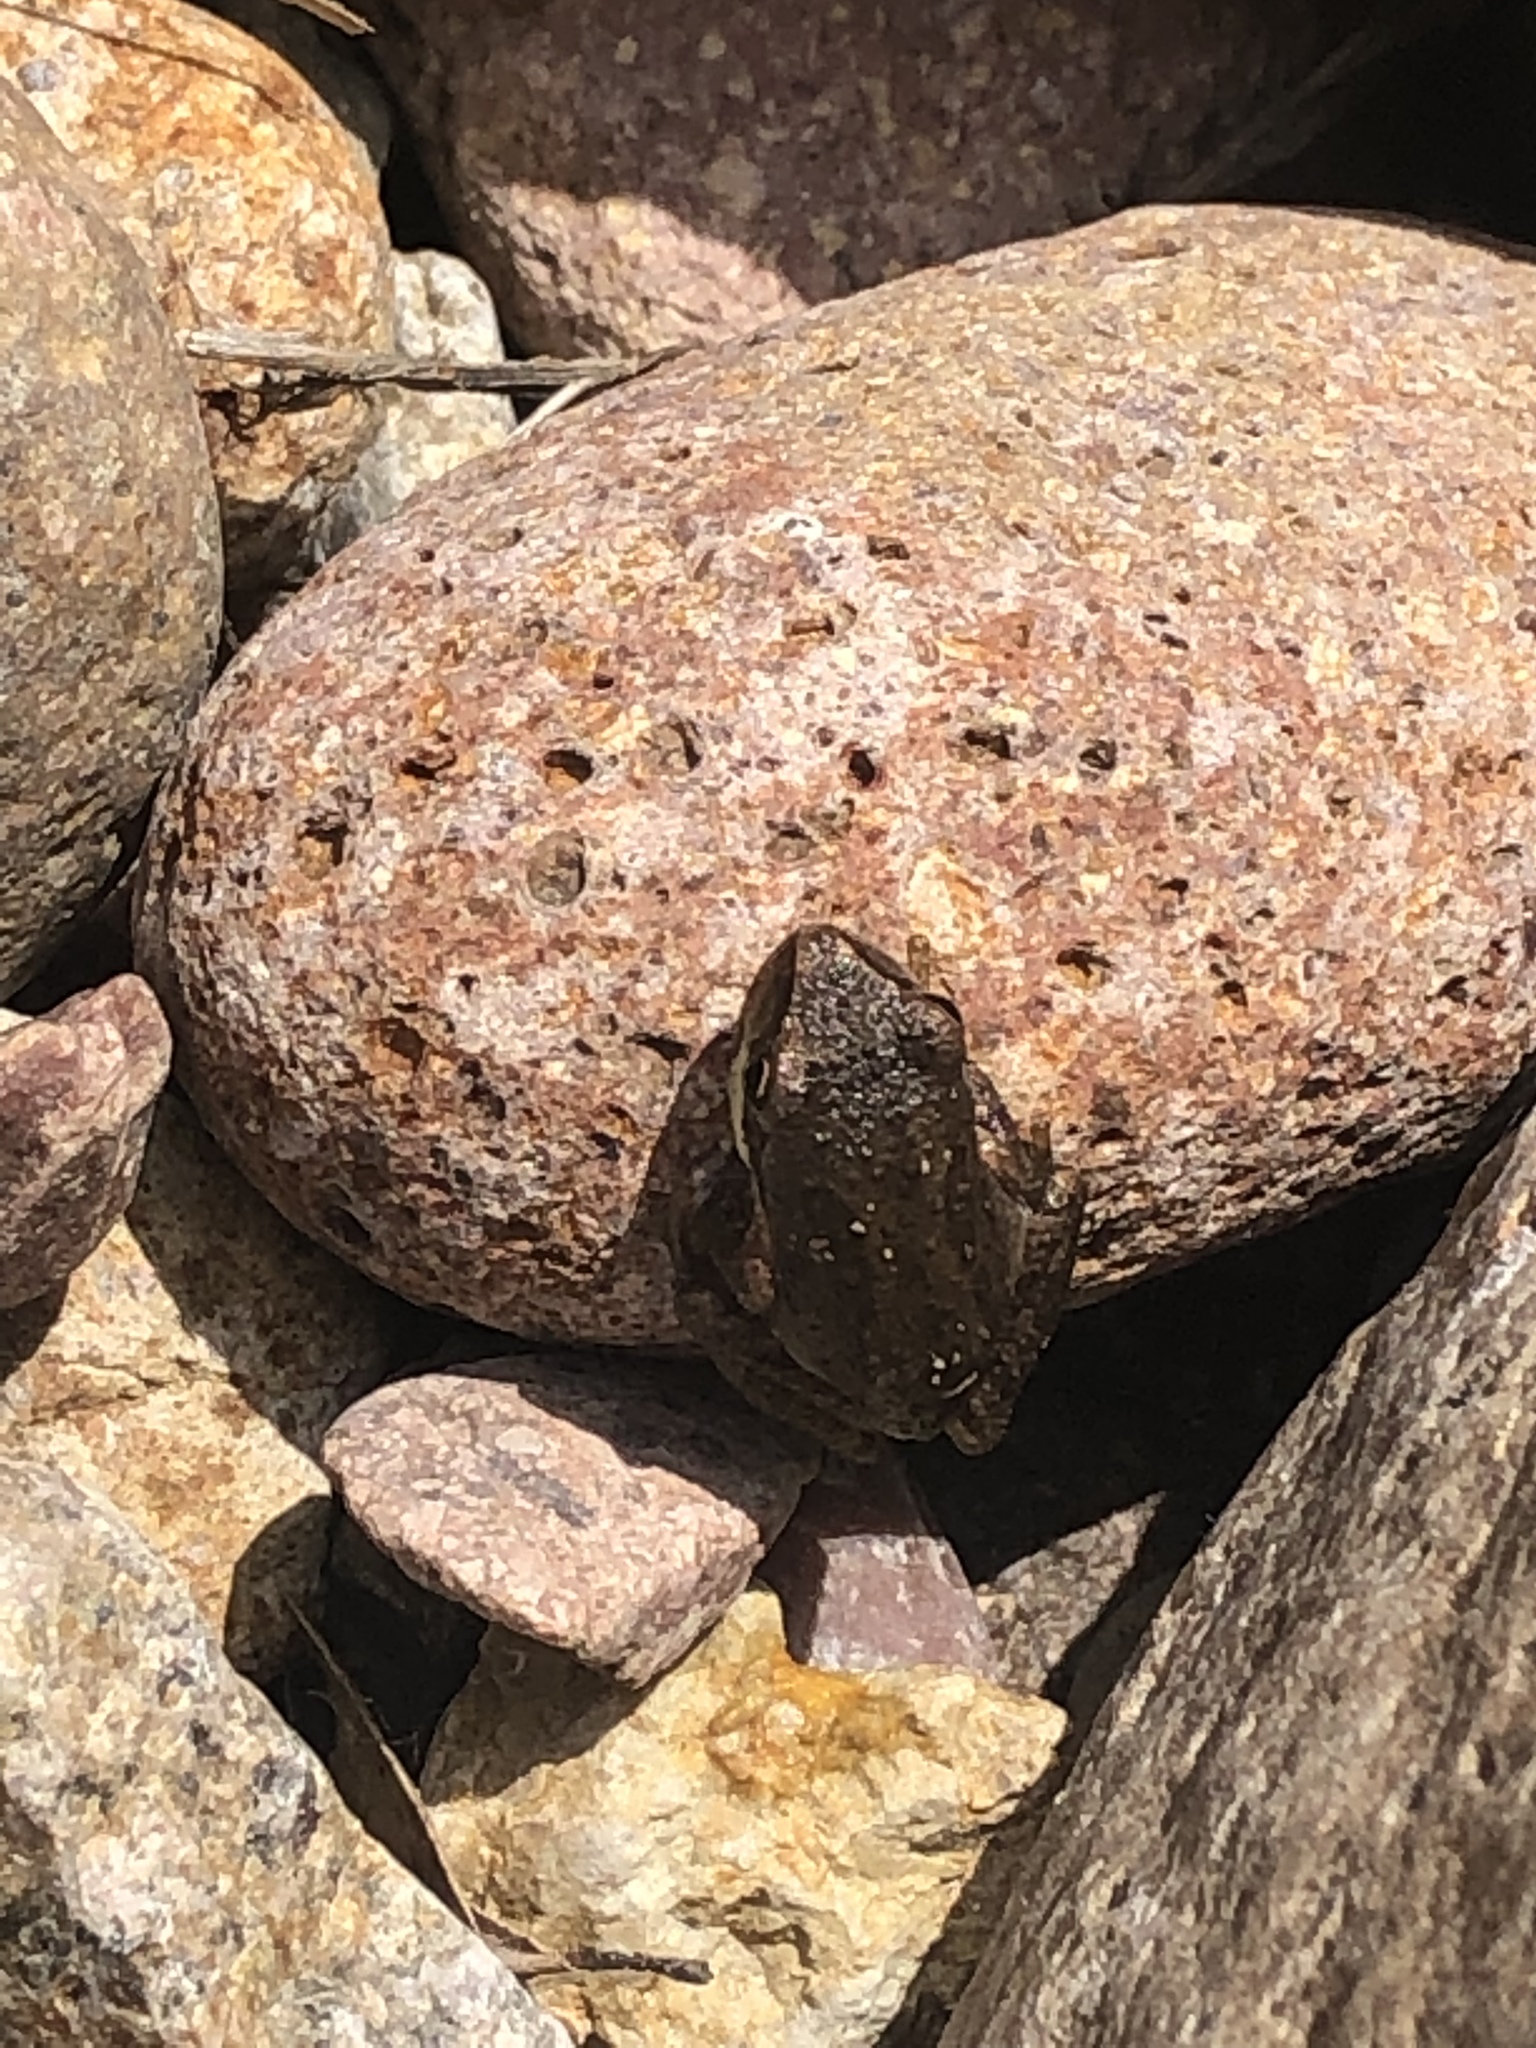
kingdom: Animalia
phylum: Chordata
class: Amphibia
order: Anura
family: Hylidae
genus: Pseudacris
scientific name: Pseudacris regilla
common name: Pacific chorus frog
